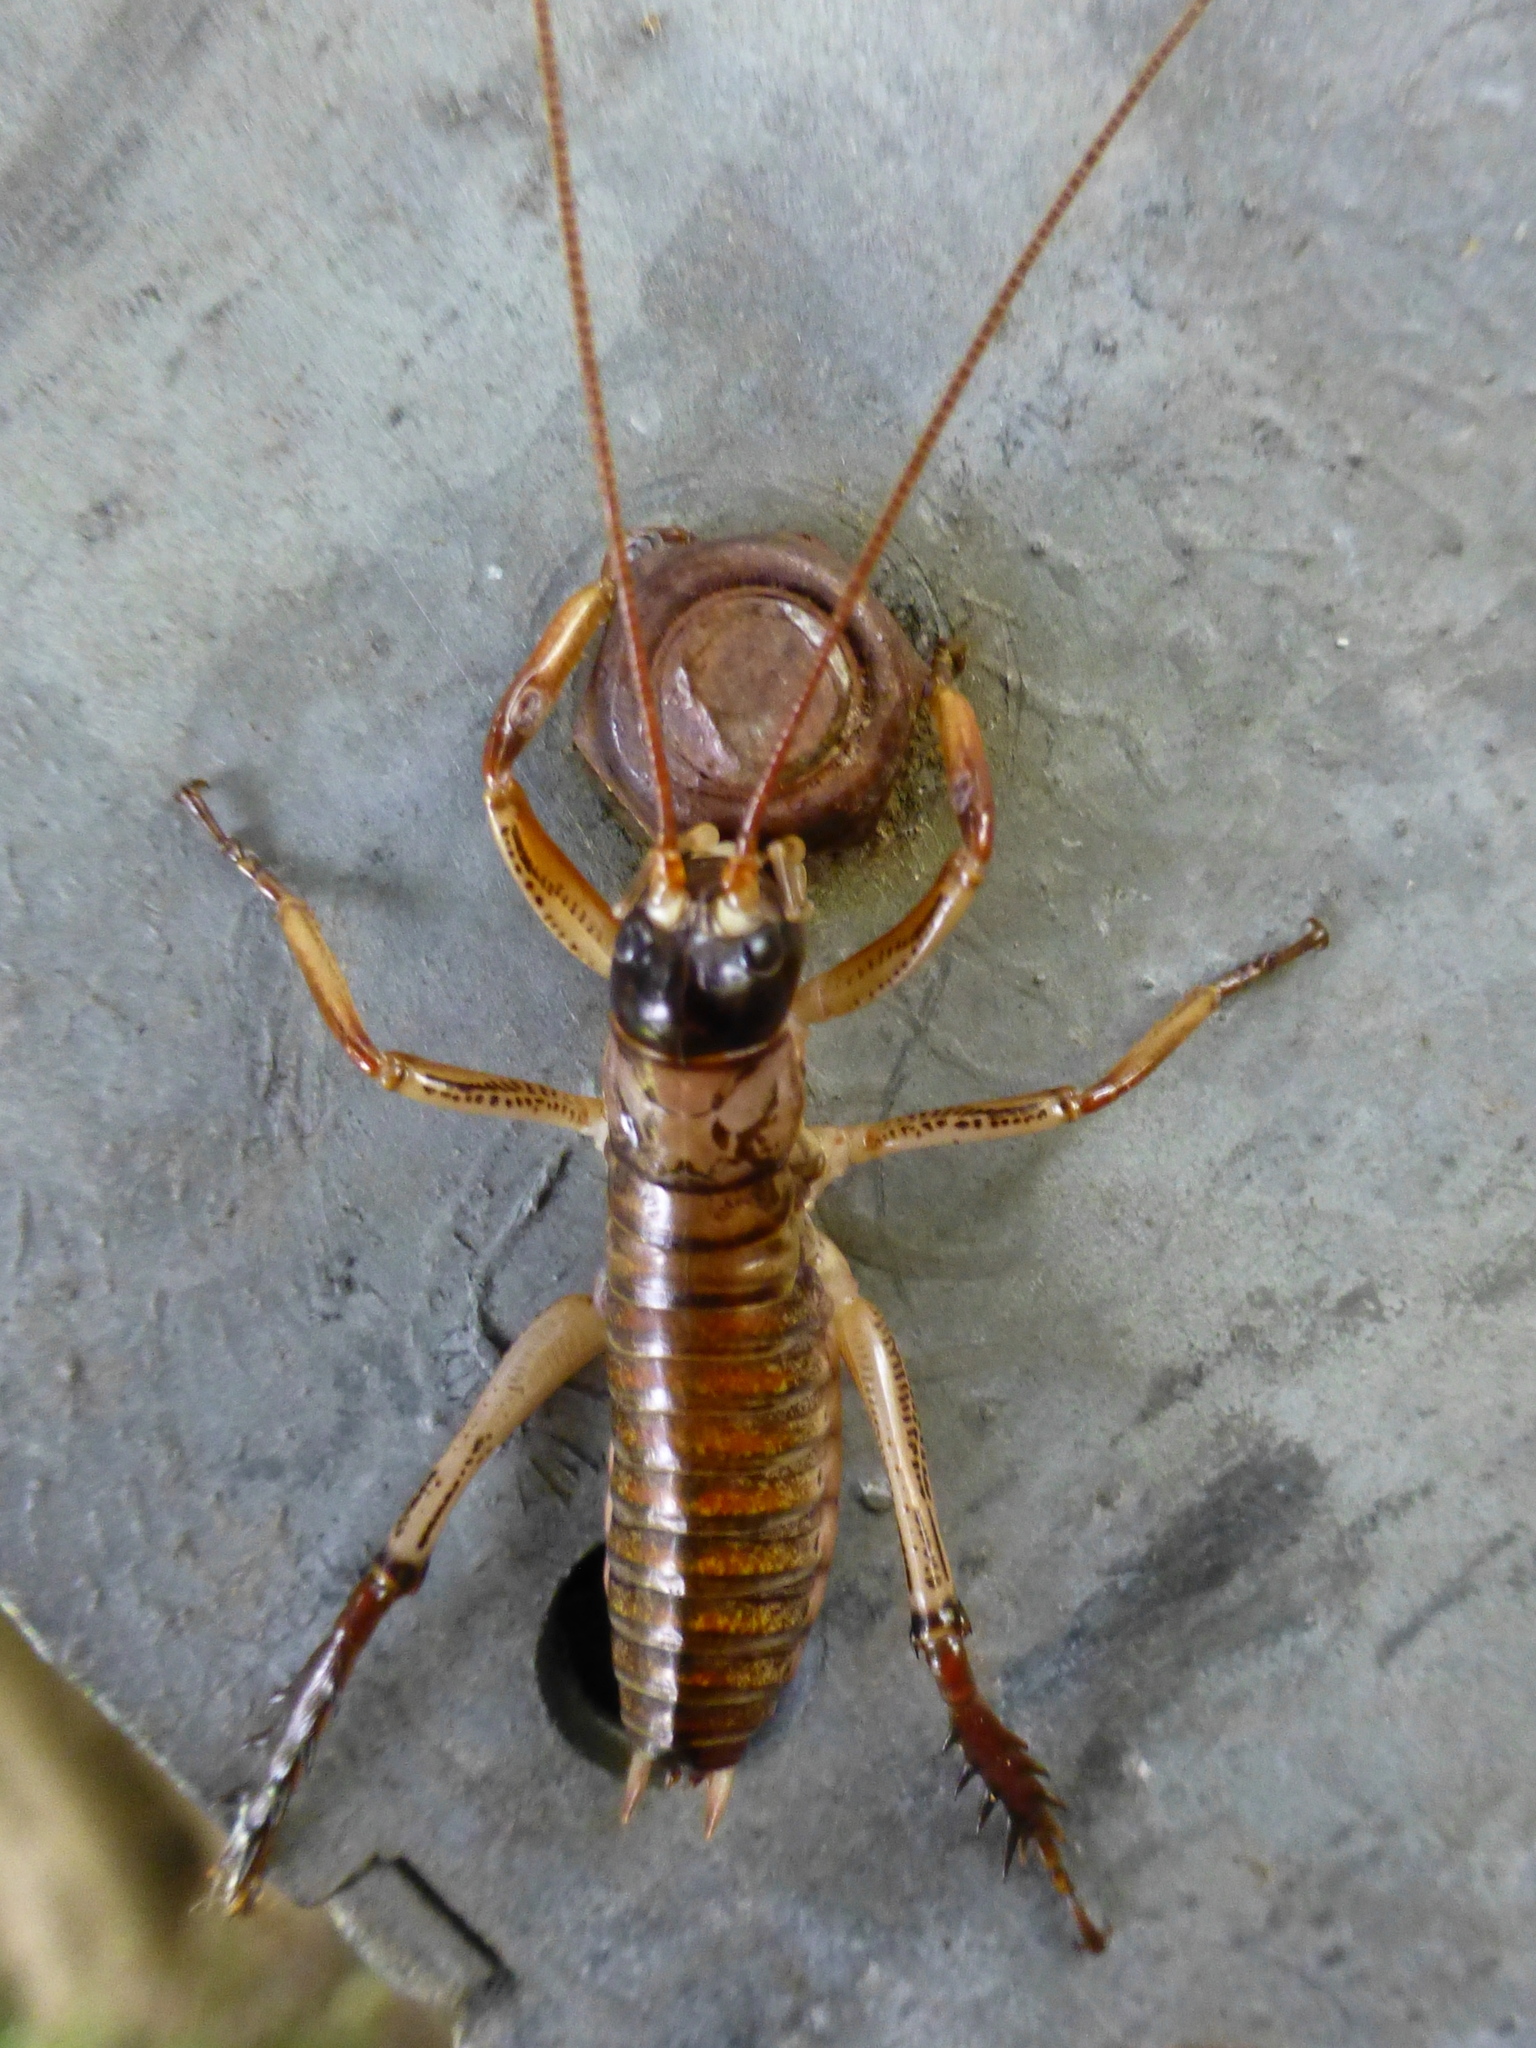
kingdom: Animalia
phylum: Arthropoda
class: Insecta
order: Orthoptera
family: Anostostomatidae
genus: Hemideina
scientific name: Hemideina thoracica
